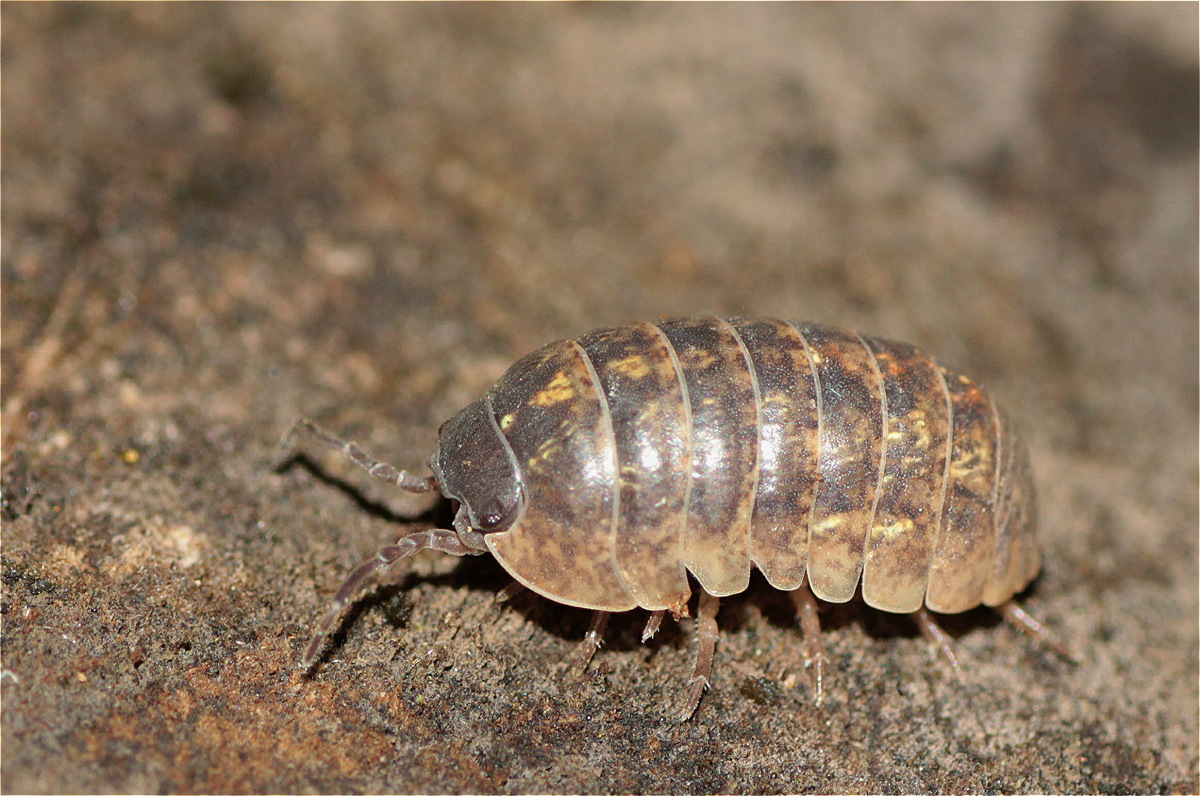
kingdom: Animalia
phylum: Arthropoda
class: Malacostraca
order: Isopoda
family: Armadillidiidae
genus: Armadillidium
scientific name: Armadillidium vulgare
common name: Common pill woodlouse
